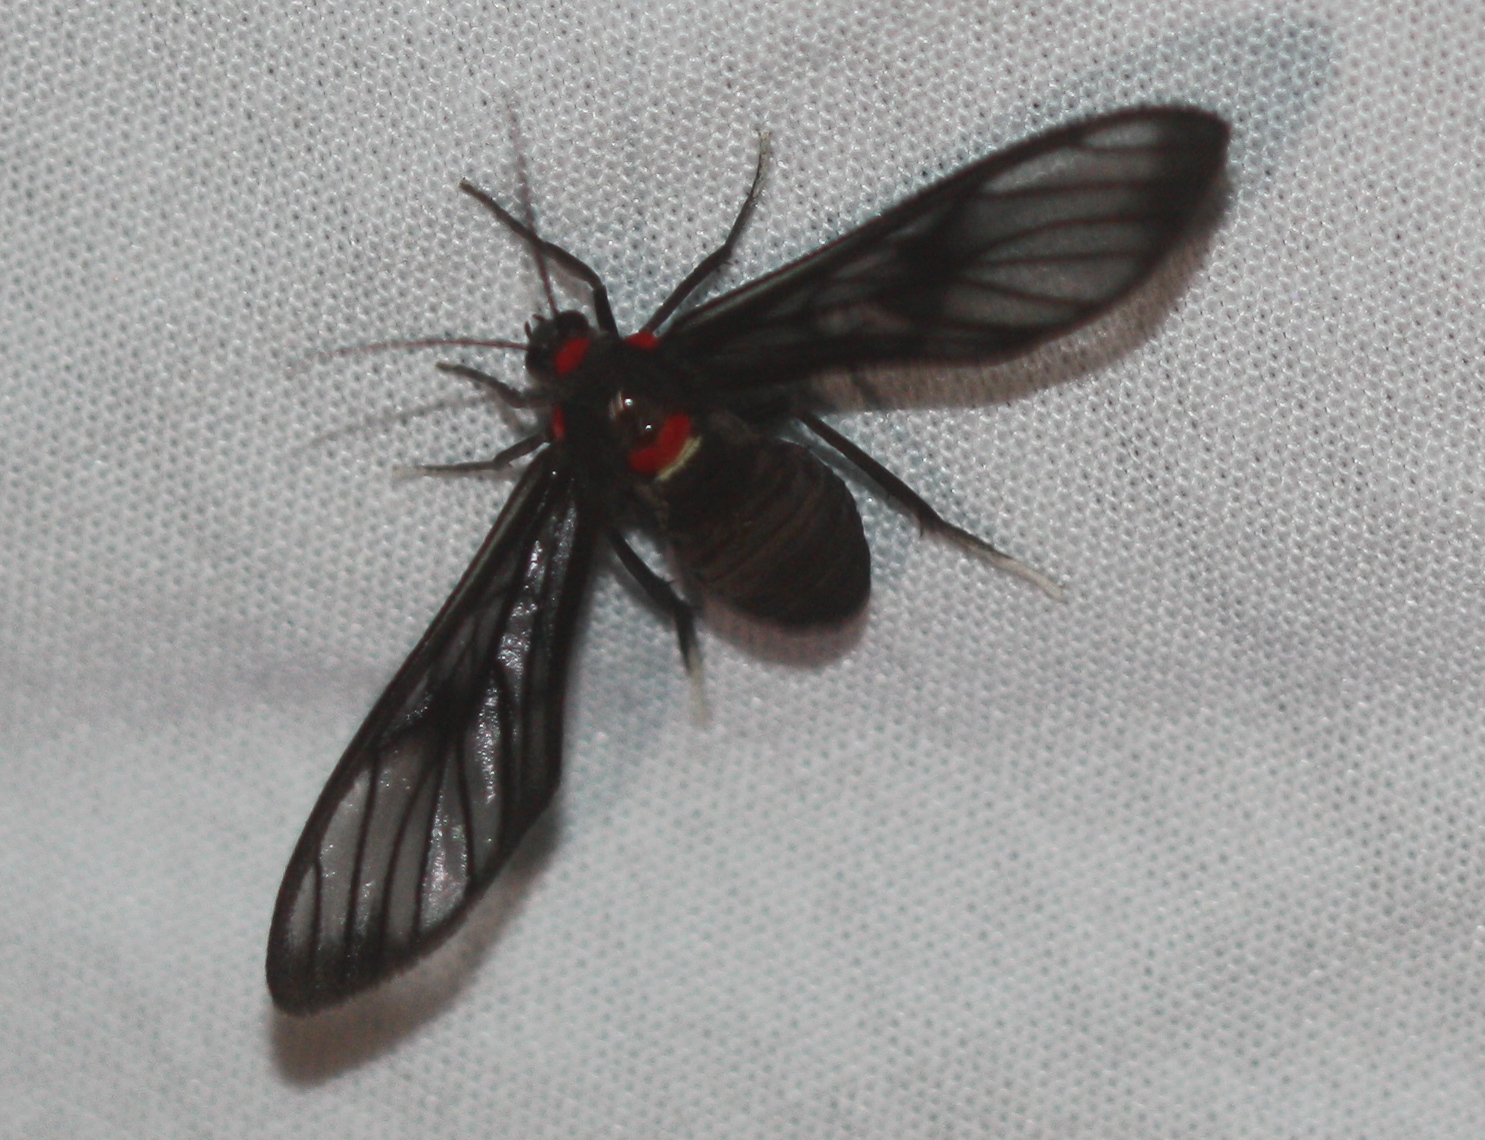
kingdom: Animalia
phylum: Arthropoda
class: Insecta
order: Lepidoptera
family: Erebidae
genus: Saurita
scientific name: Saurita phoenicosticta
